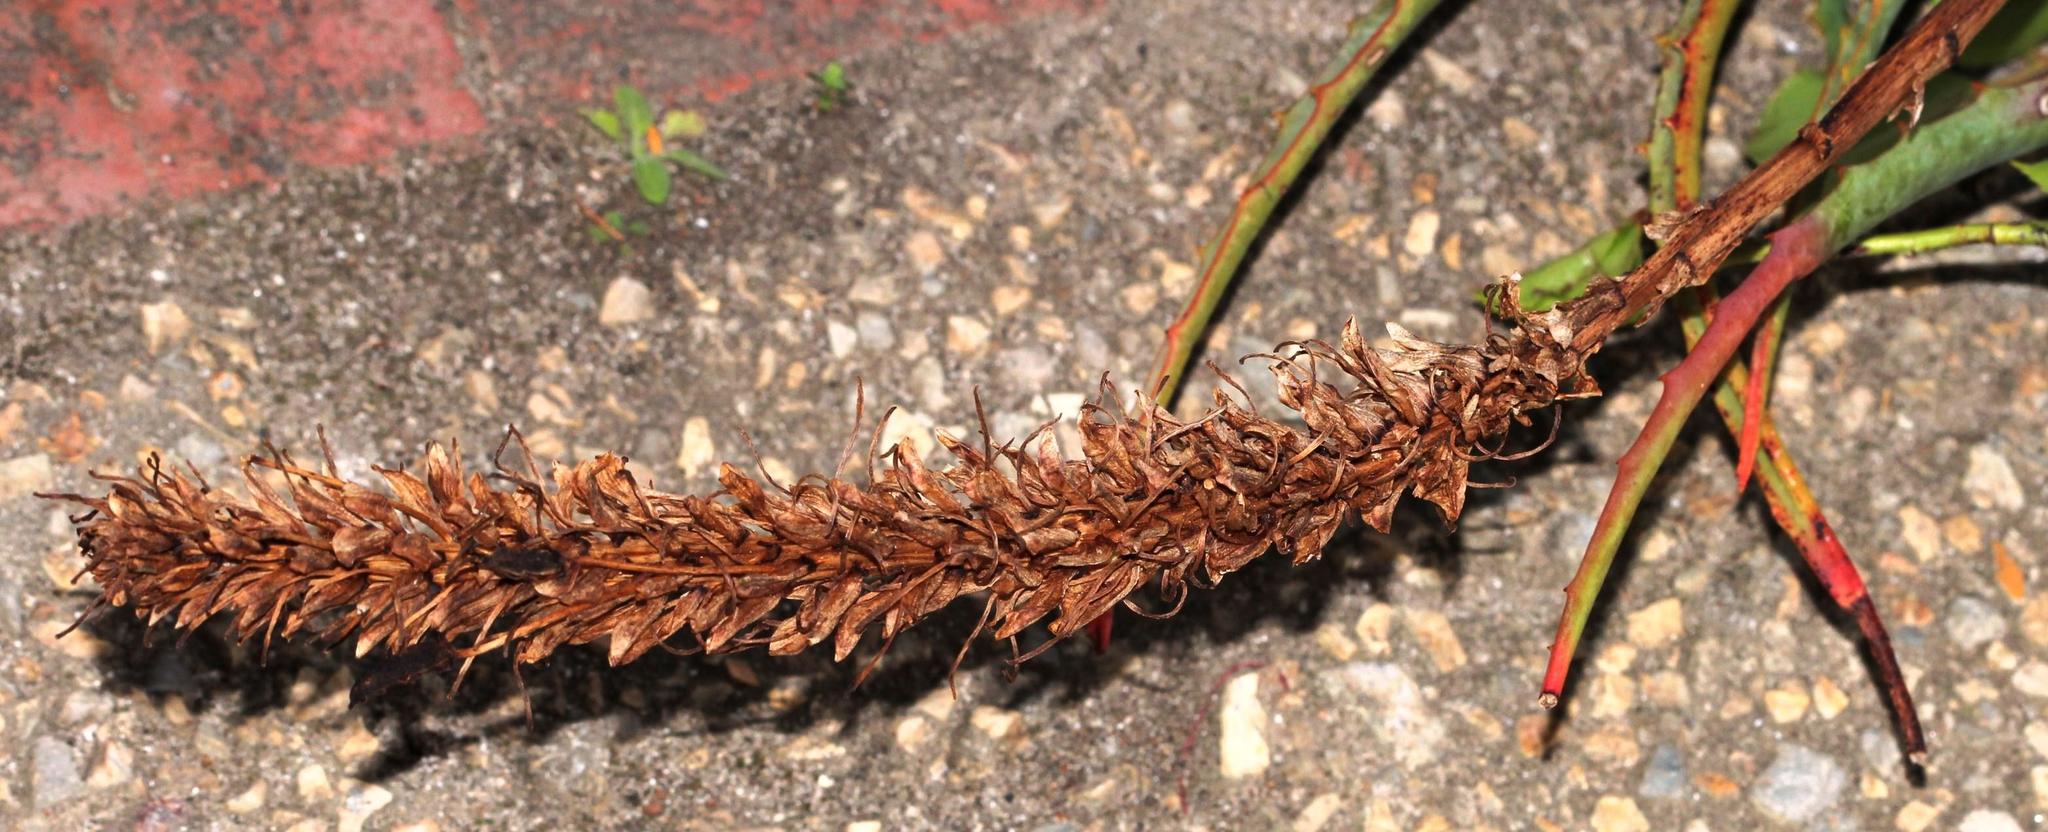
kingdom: Plantae
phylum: Tracheophyta
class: Liliopsida
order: Asparagales
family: Asphodelaceae
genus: Aloe
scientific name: Aloe arborescens
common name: Candelabra aloe
